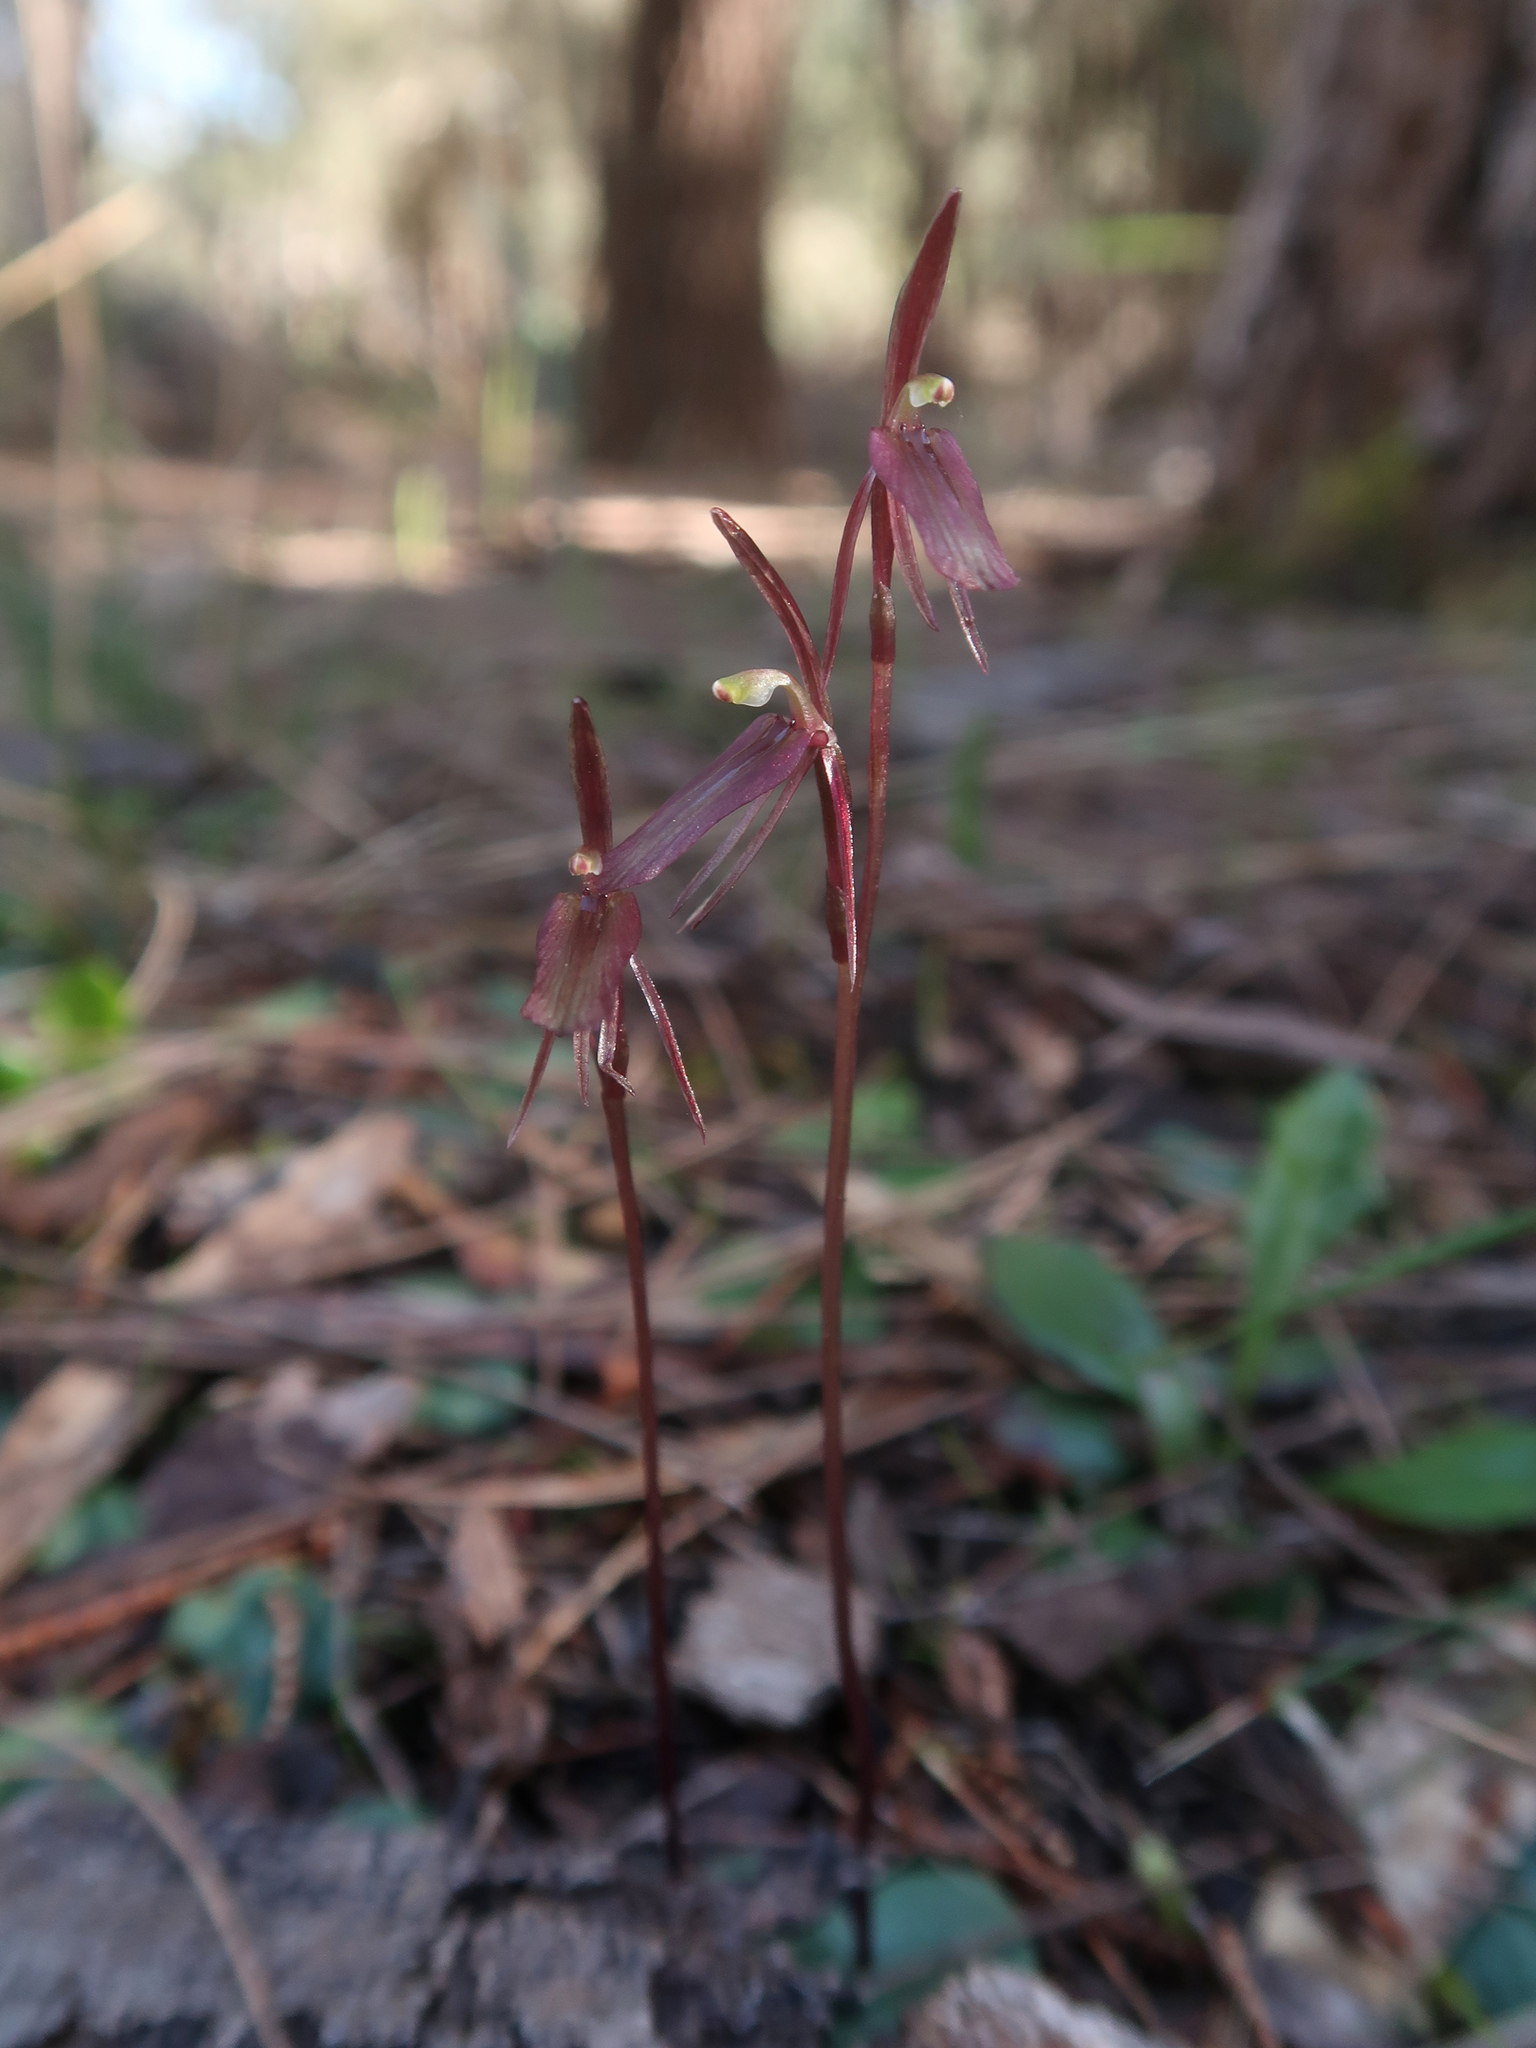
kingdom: Plantae
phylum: Tracheophyta
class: Liliopsida
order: Asparagales
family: Orchidaceae
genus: Cyrtostylis
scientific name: Cyrtostylis reniformis
